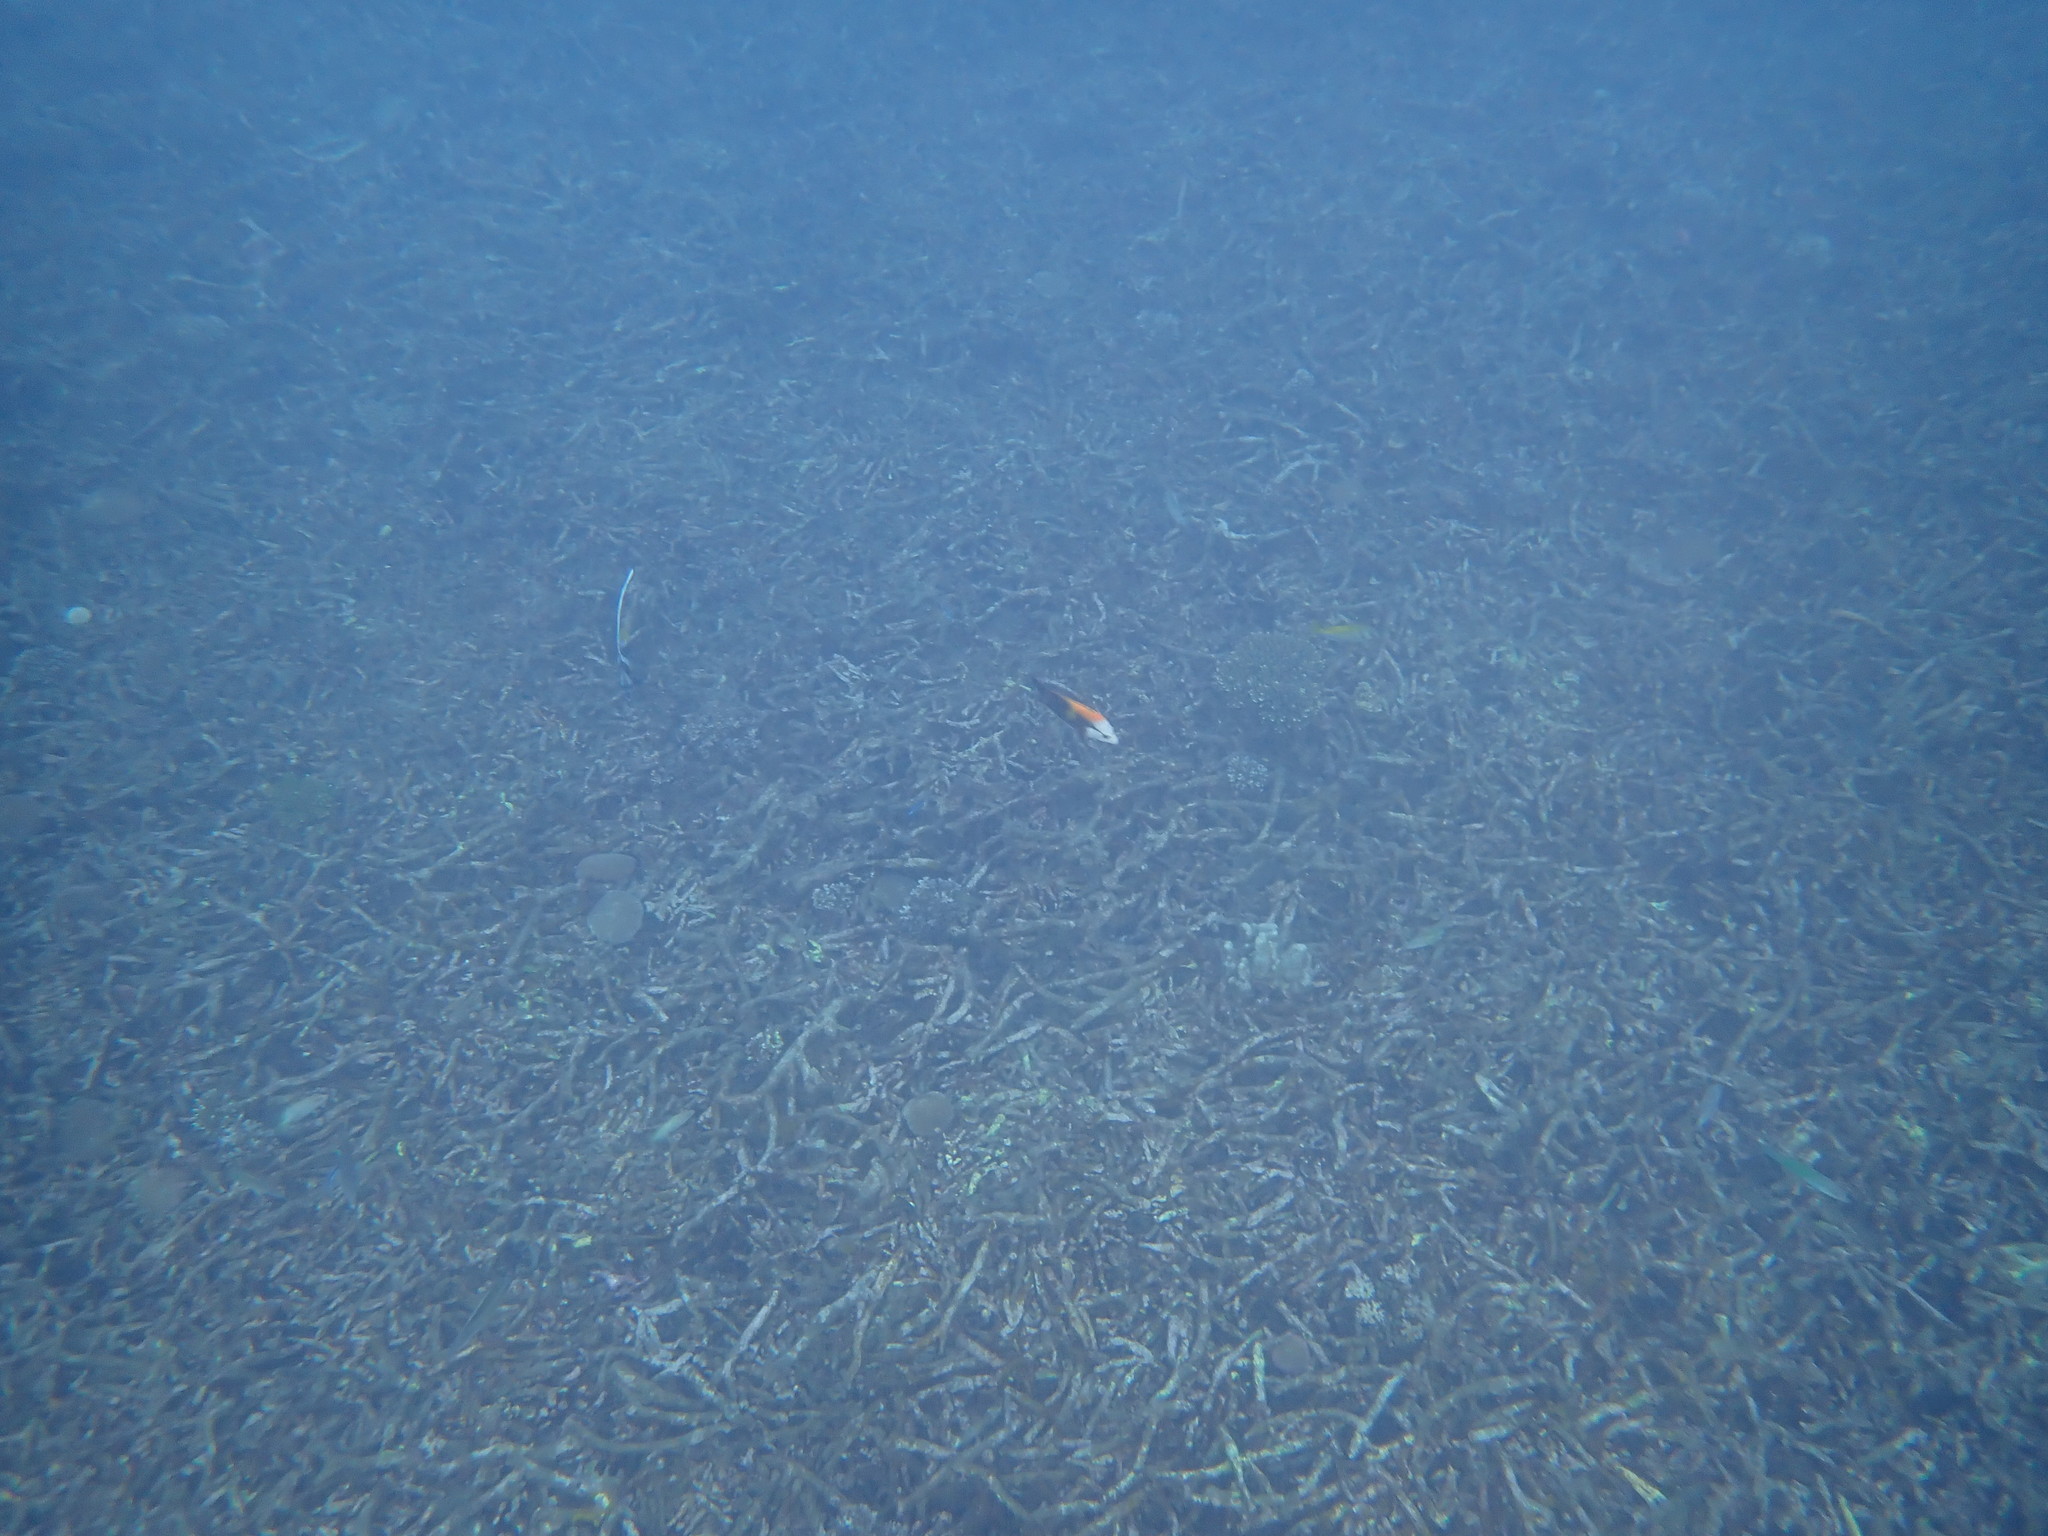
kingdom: Animalia
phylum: Chordata
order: Perciformes
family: Labridae
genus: Epibulus
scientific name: Epibulus insidiator
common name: Slingjaw wrasse
